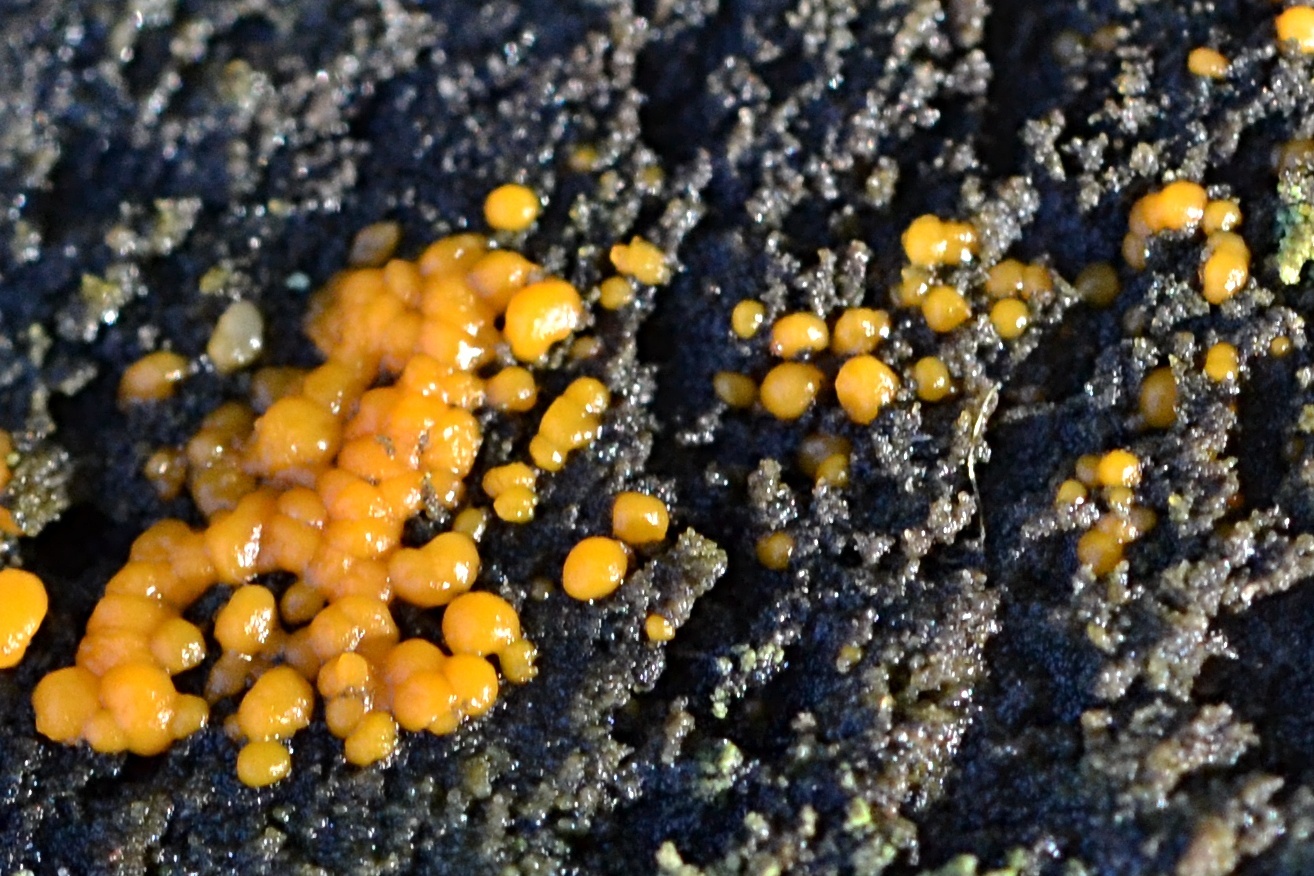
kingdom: Fungi
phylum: Basidiomycota
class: Dacrymycetes
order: Dacrymycetales
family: Dacrymycetaceae
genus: Dacrymyces
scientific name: Dacrymyces stillatus
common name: Common jelly spot
